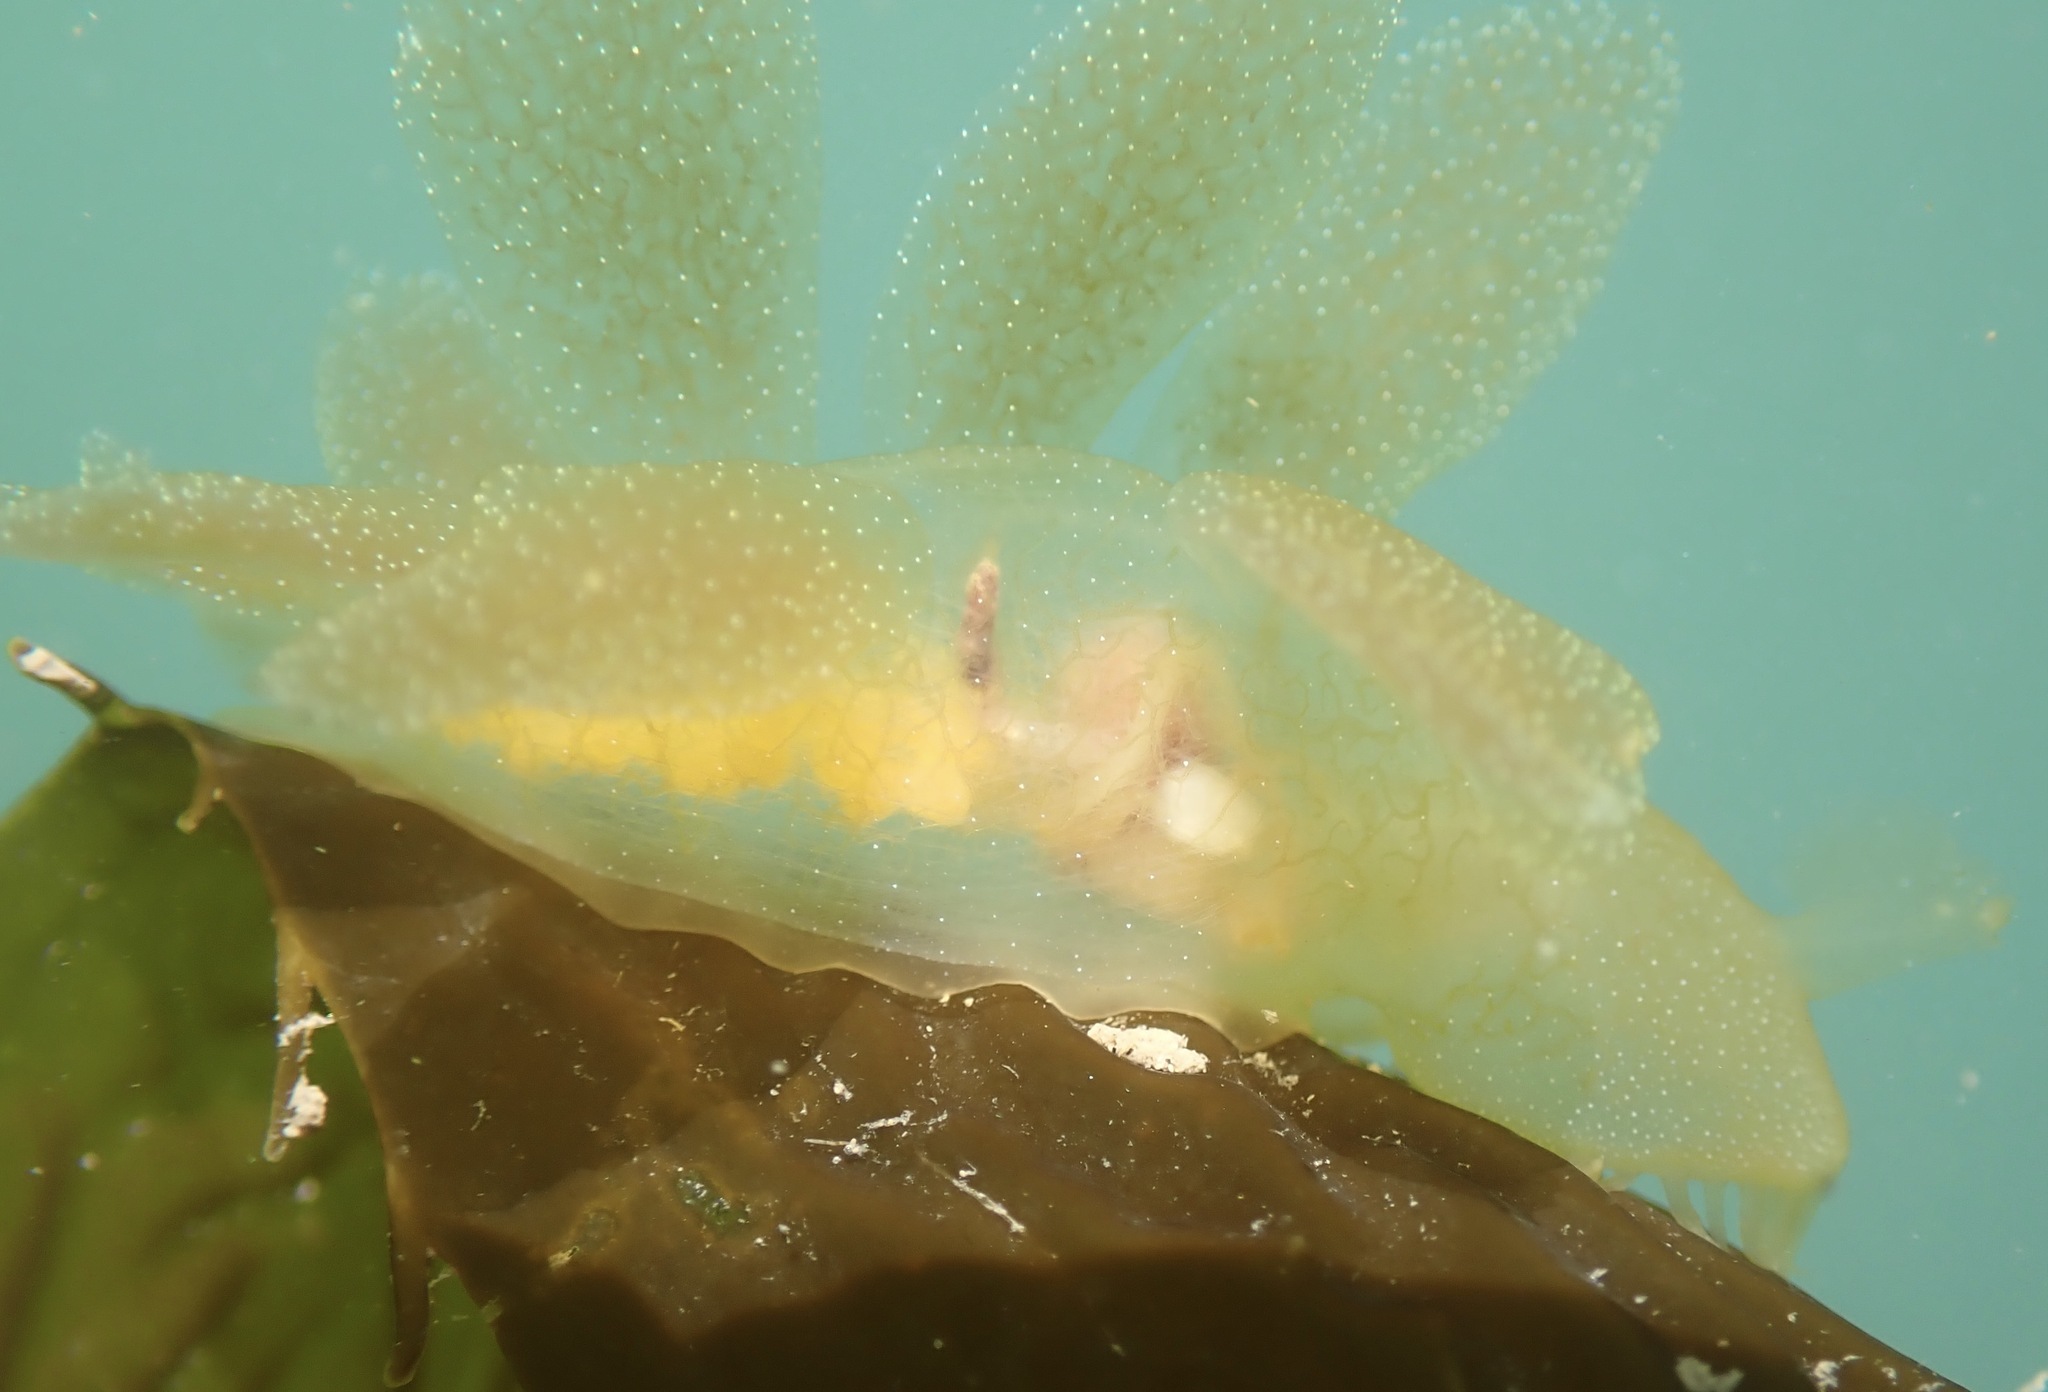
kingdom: Animalia
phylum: Mollusca
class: Gastropoda
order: Nudibranchia
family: Tethydidae
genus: Melibe
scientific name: Melibe leonina
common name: Lion nudibranch
